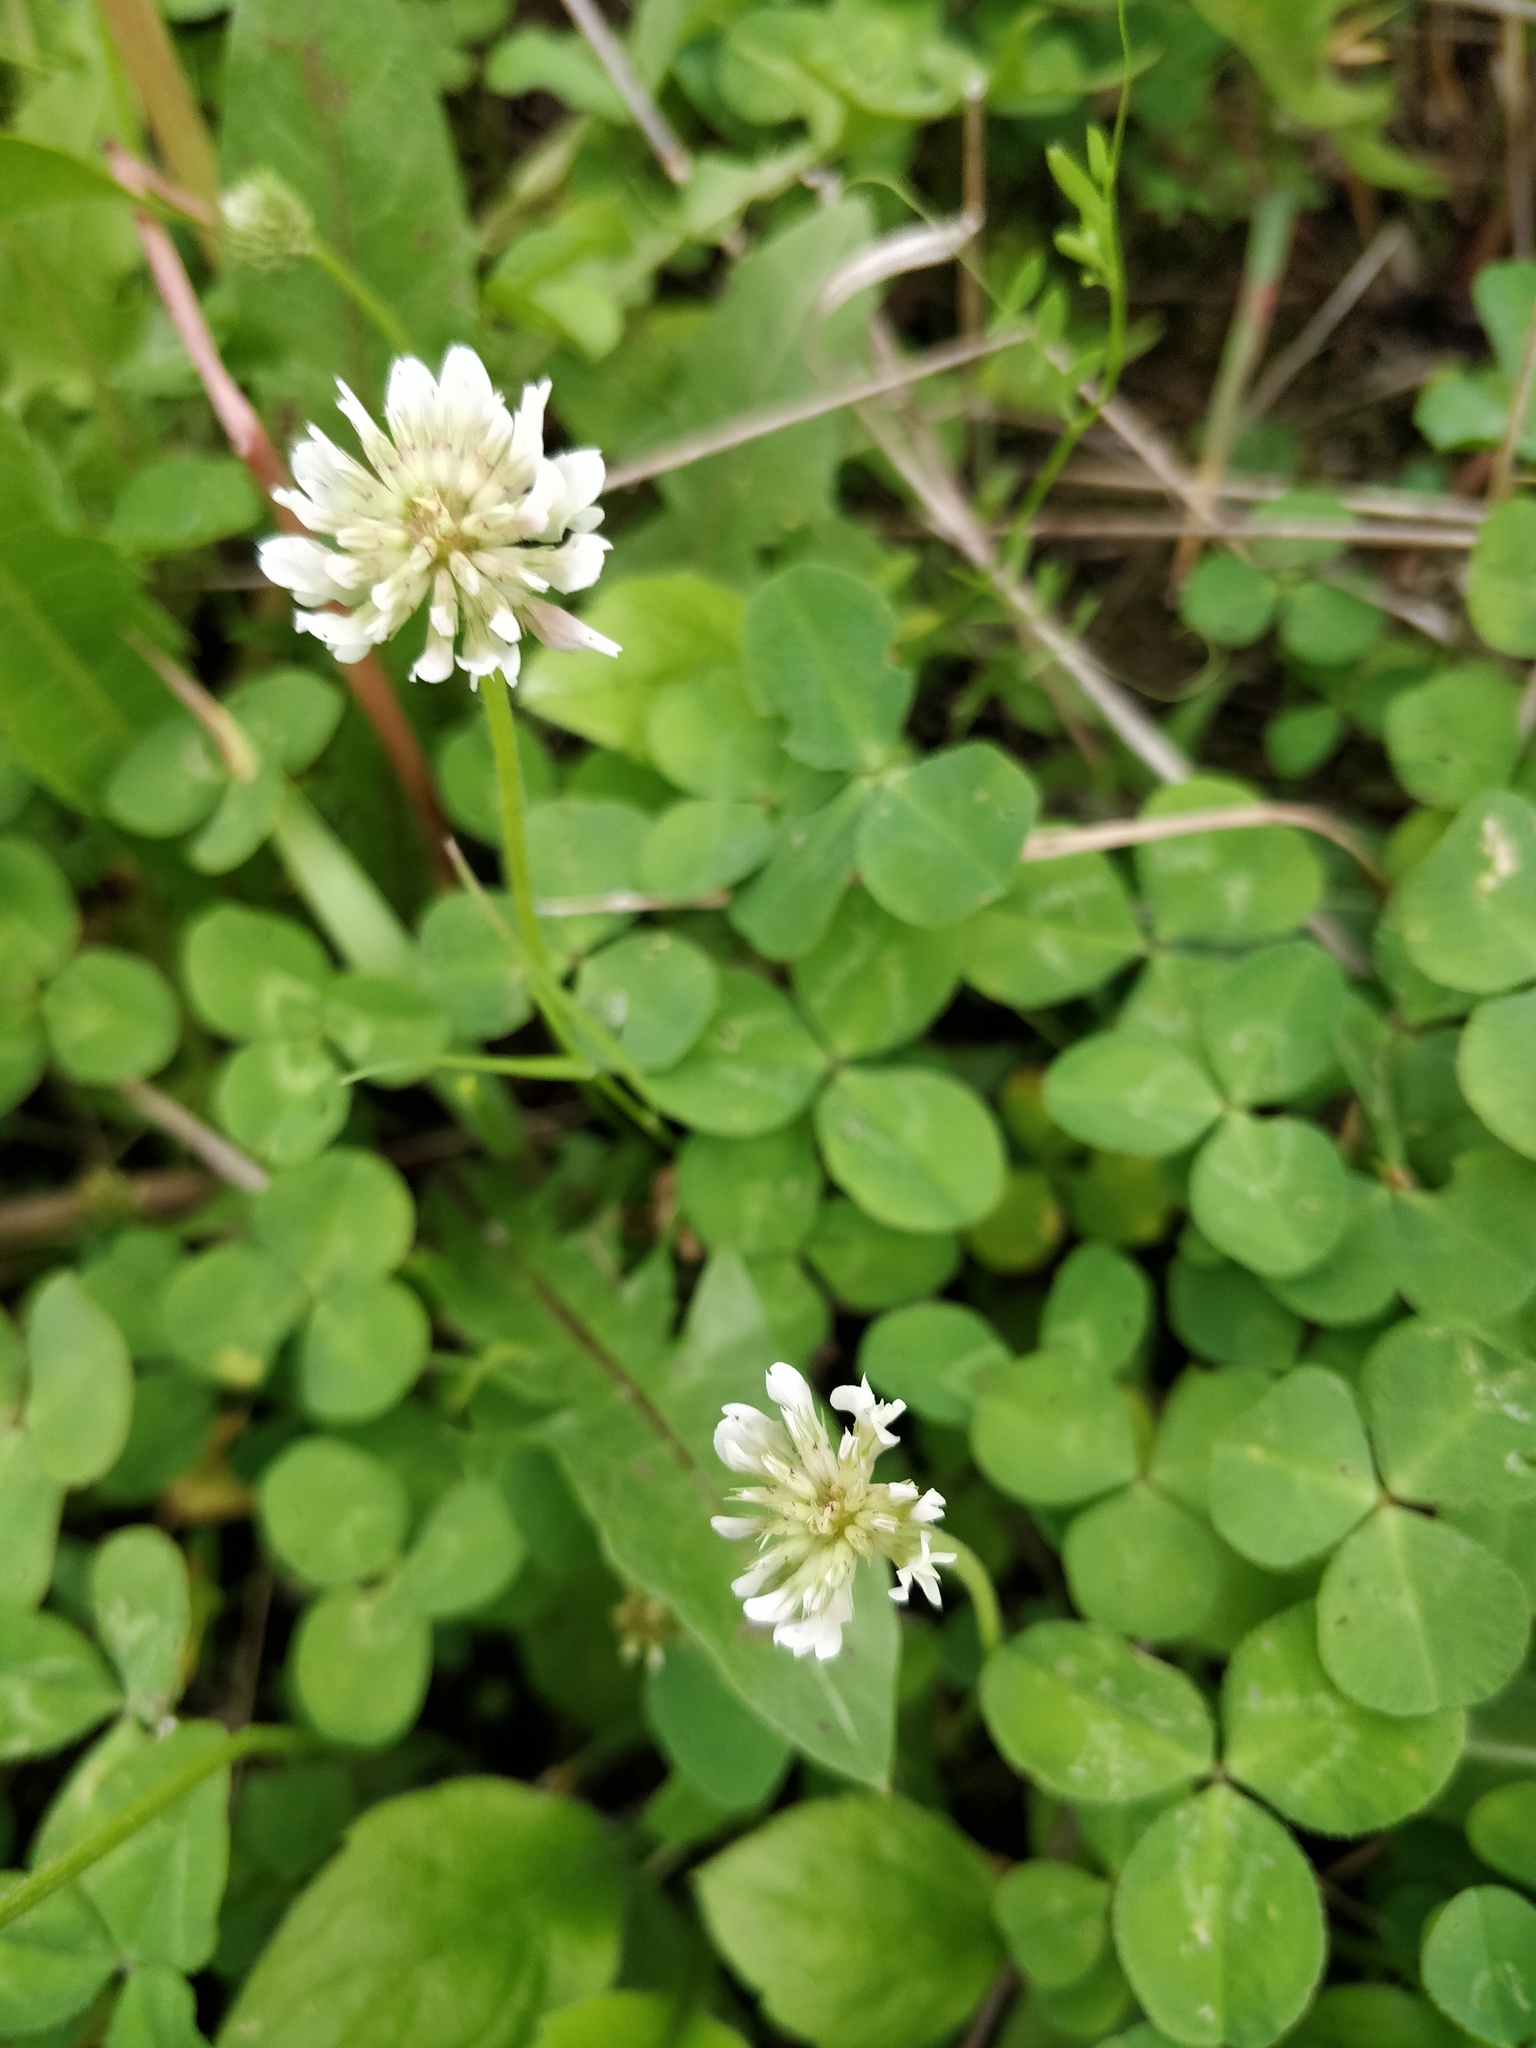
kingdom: Plantae
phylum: Tracheophyta
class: Magnoliopsida
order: Fabales
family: Fabaceae
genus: Trifolium
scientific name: Trifolium repens
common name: White clover
